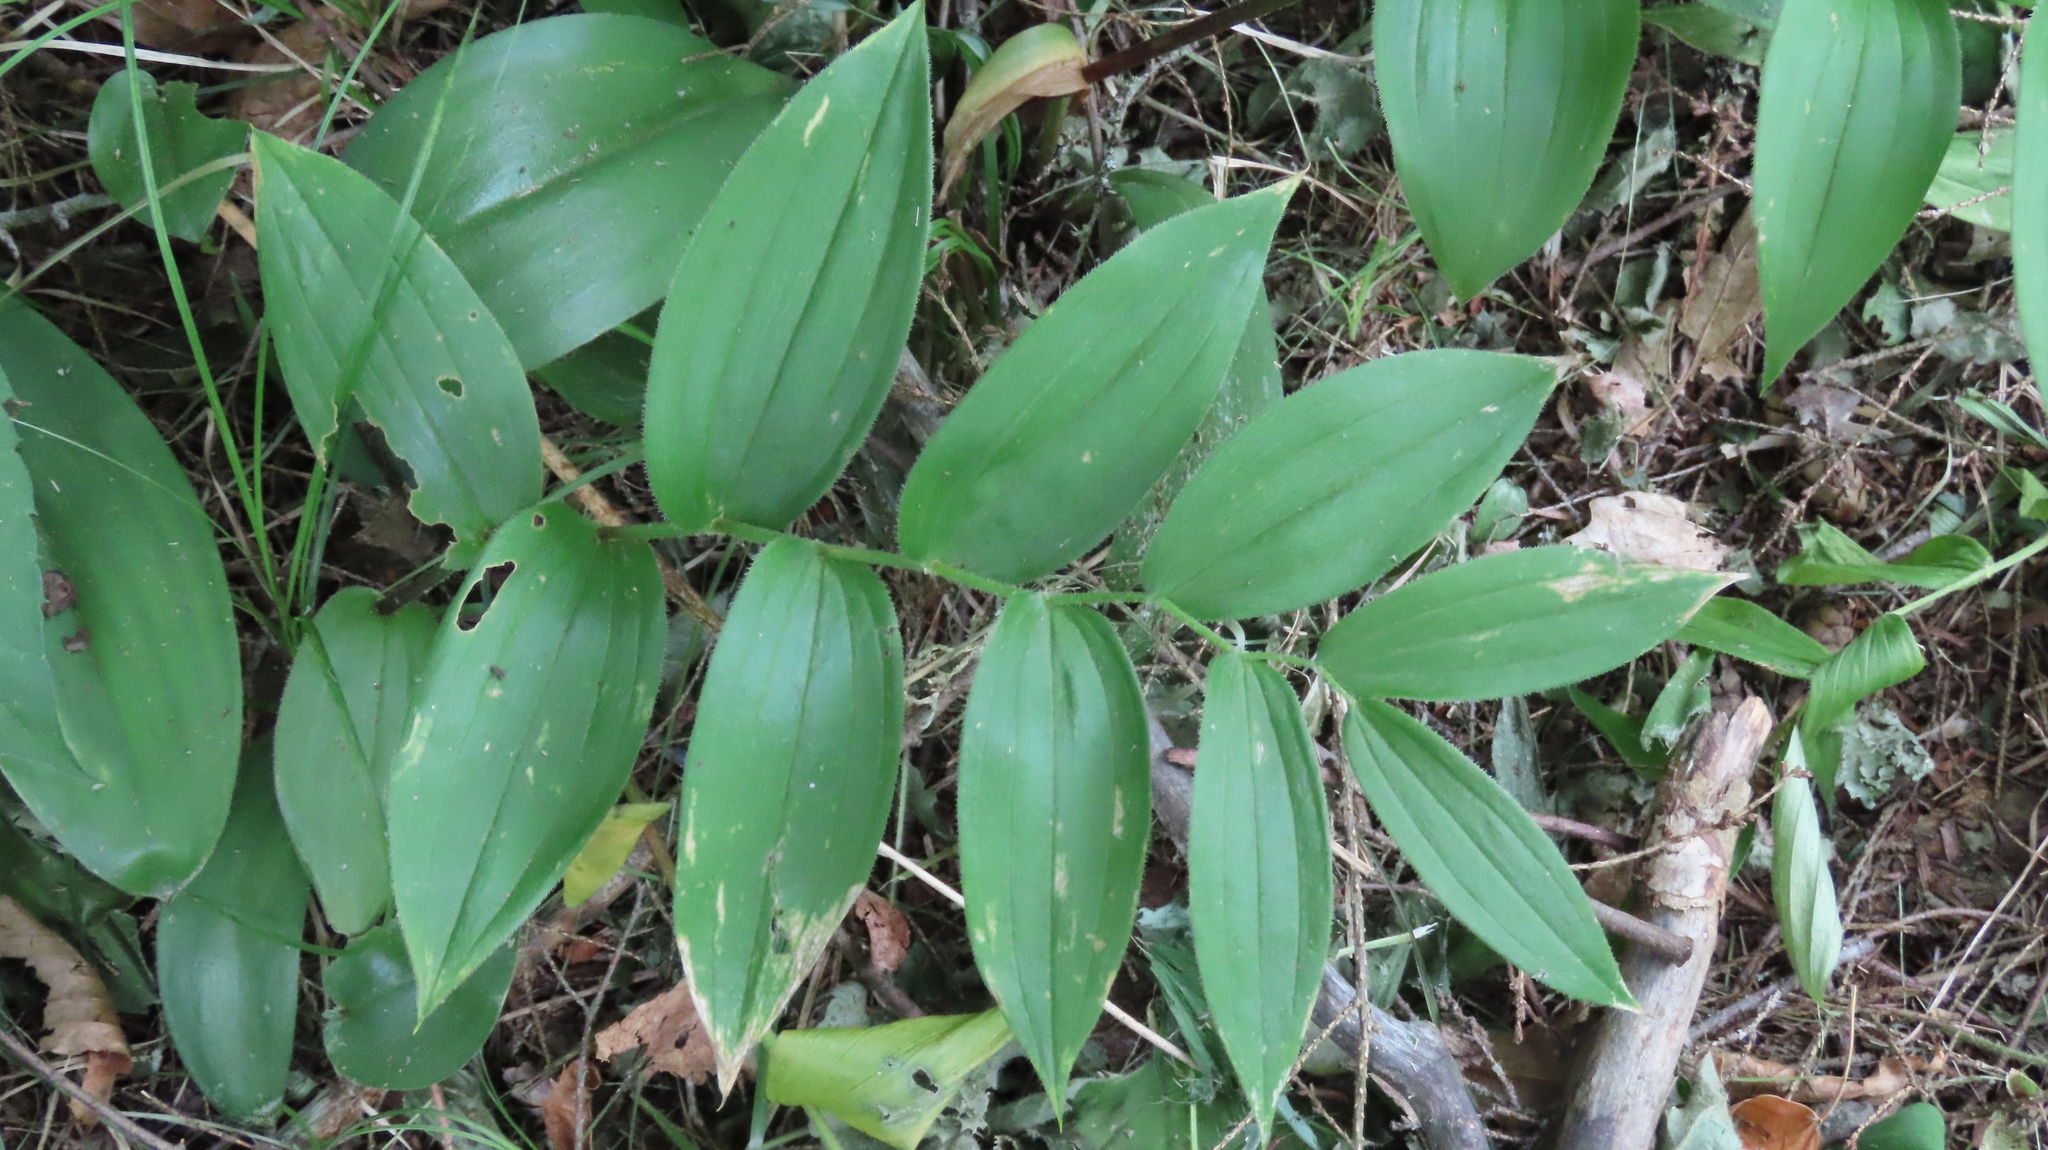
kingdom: Plantae
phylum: Tracheophyta
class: Liliopsida
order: Liliales
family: Liliaceae
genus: Streptopus
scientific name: Streptopus lanceolatus
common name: Rose mandarin
